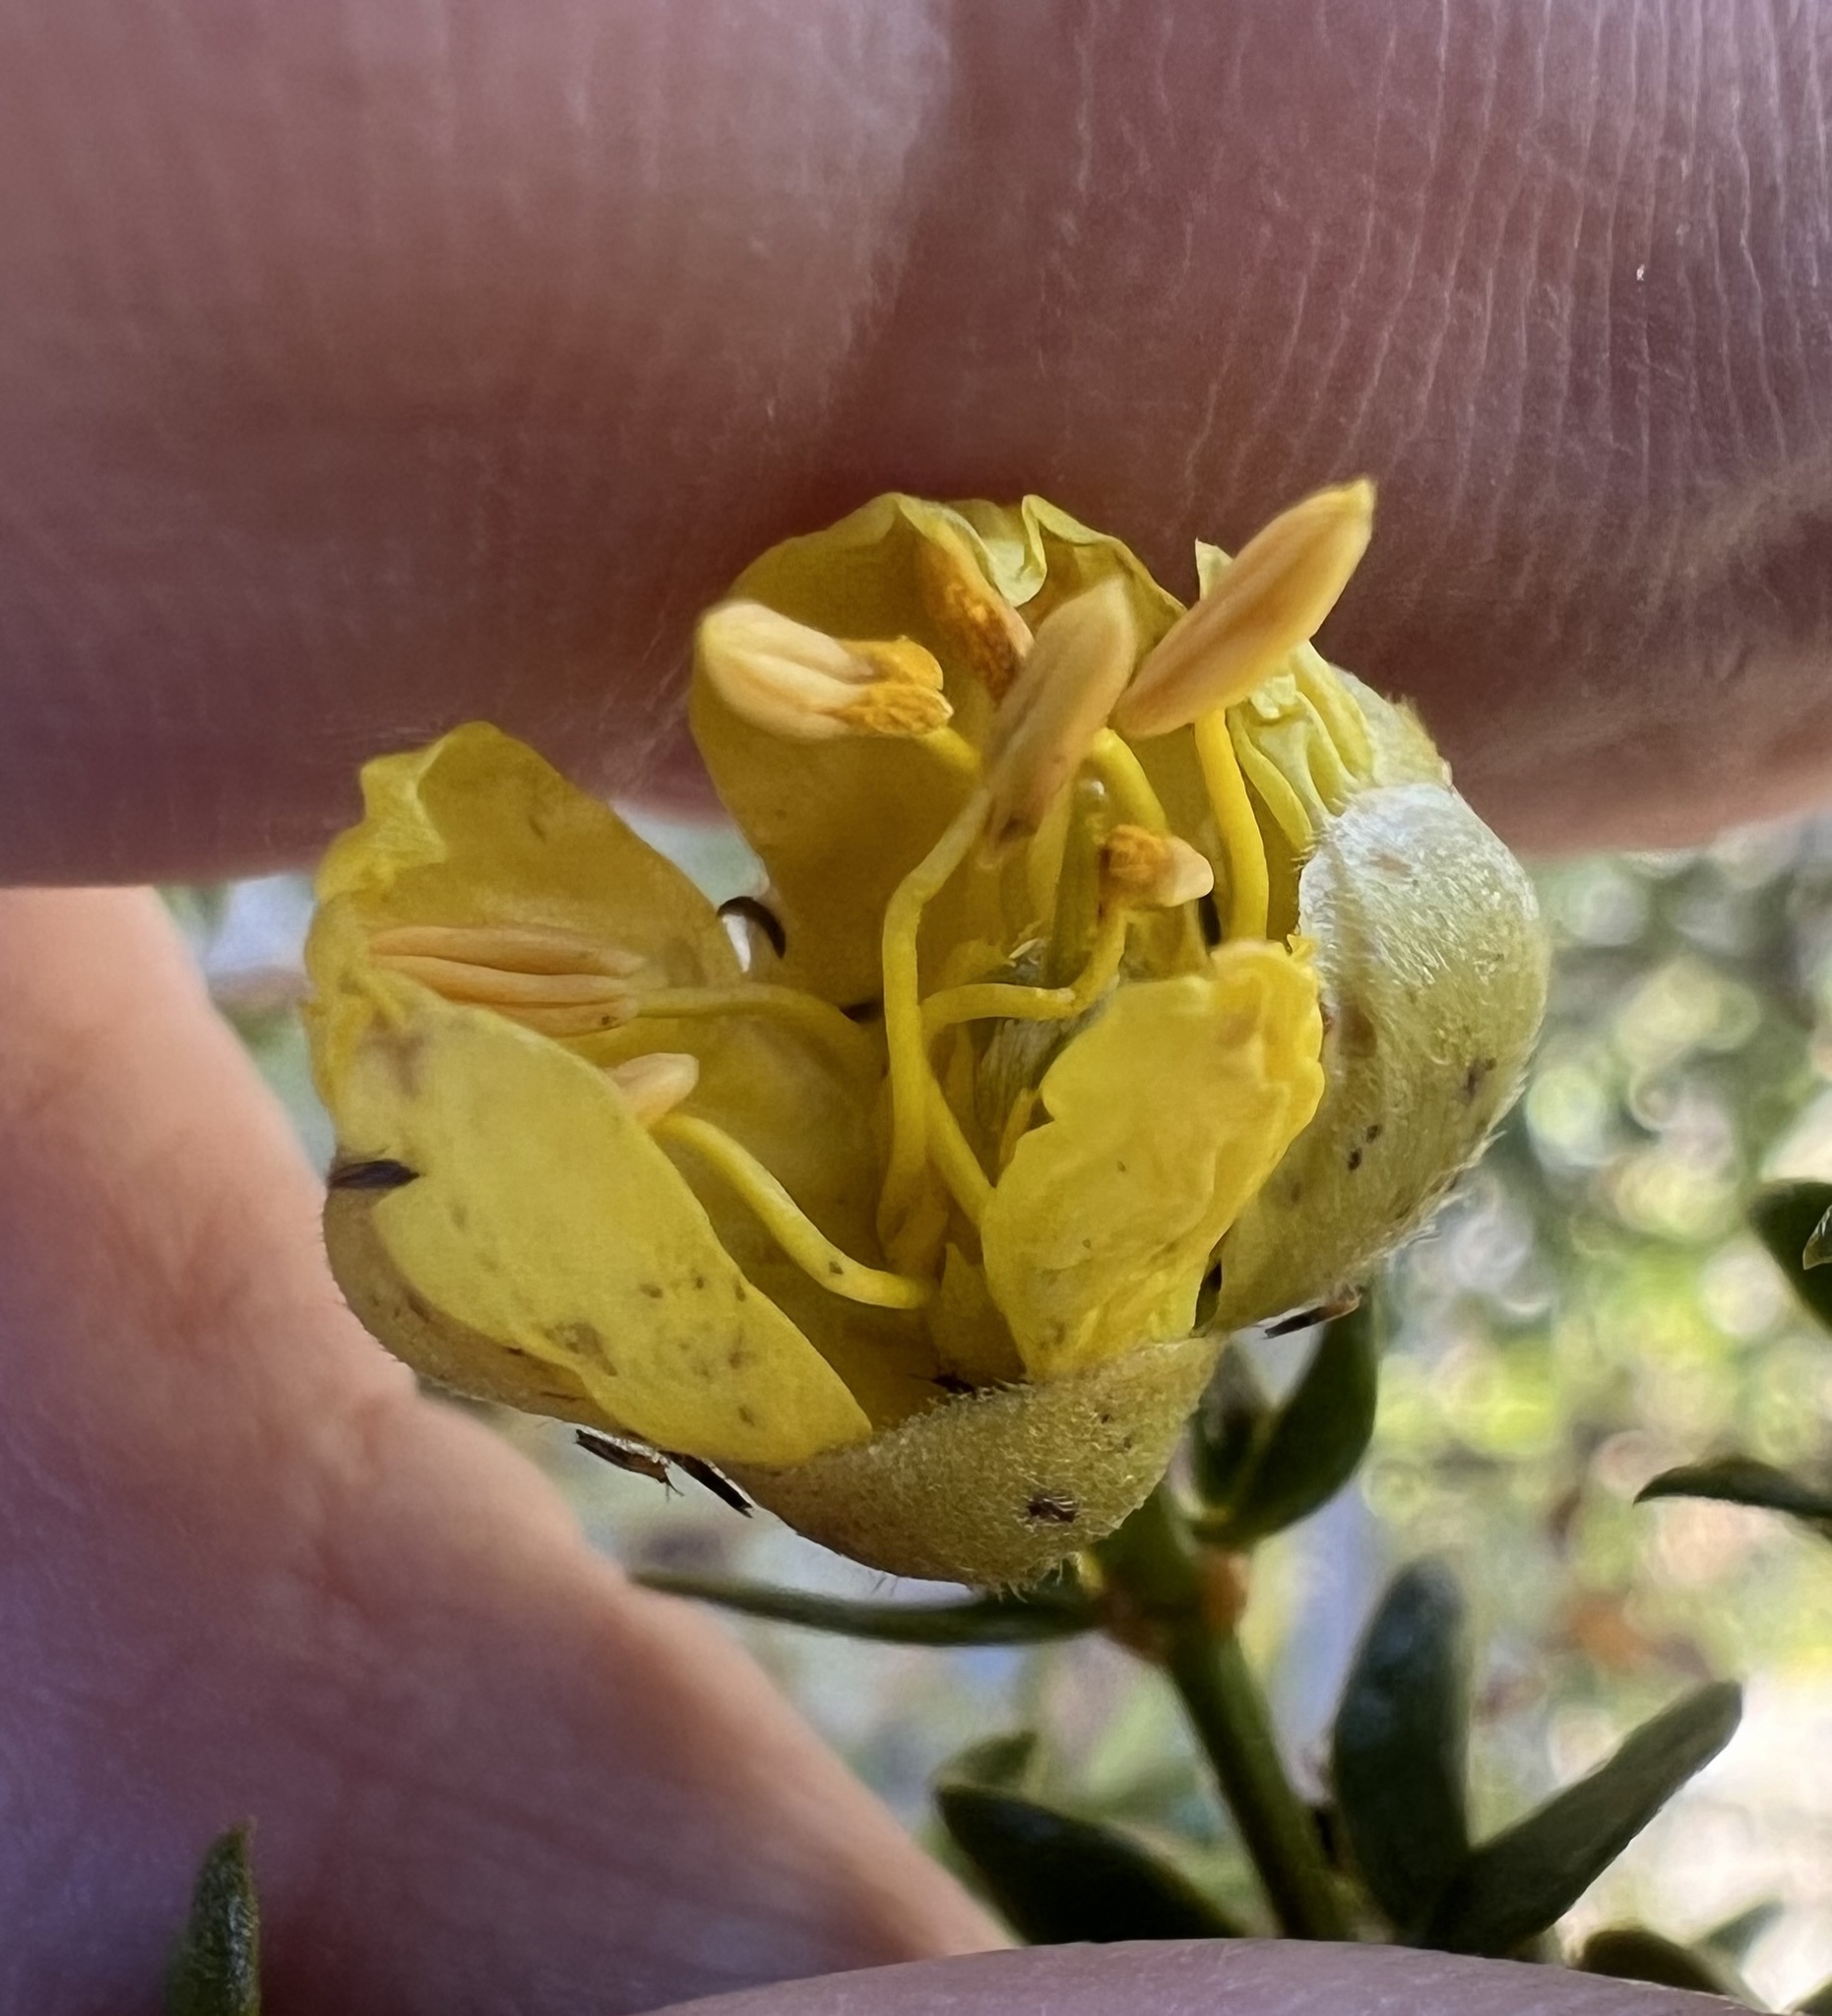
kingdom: Plantae
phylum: Tracheophyta
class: Magnoliopsida
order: Zygophyllales
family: Zygophyllaceae
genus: Larrea
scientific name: Larrea tridentata
